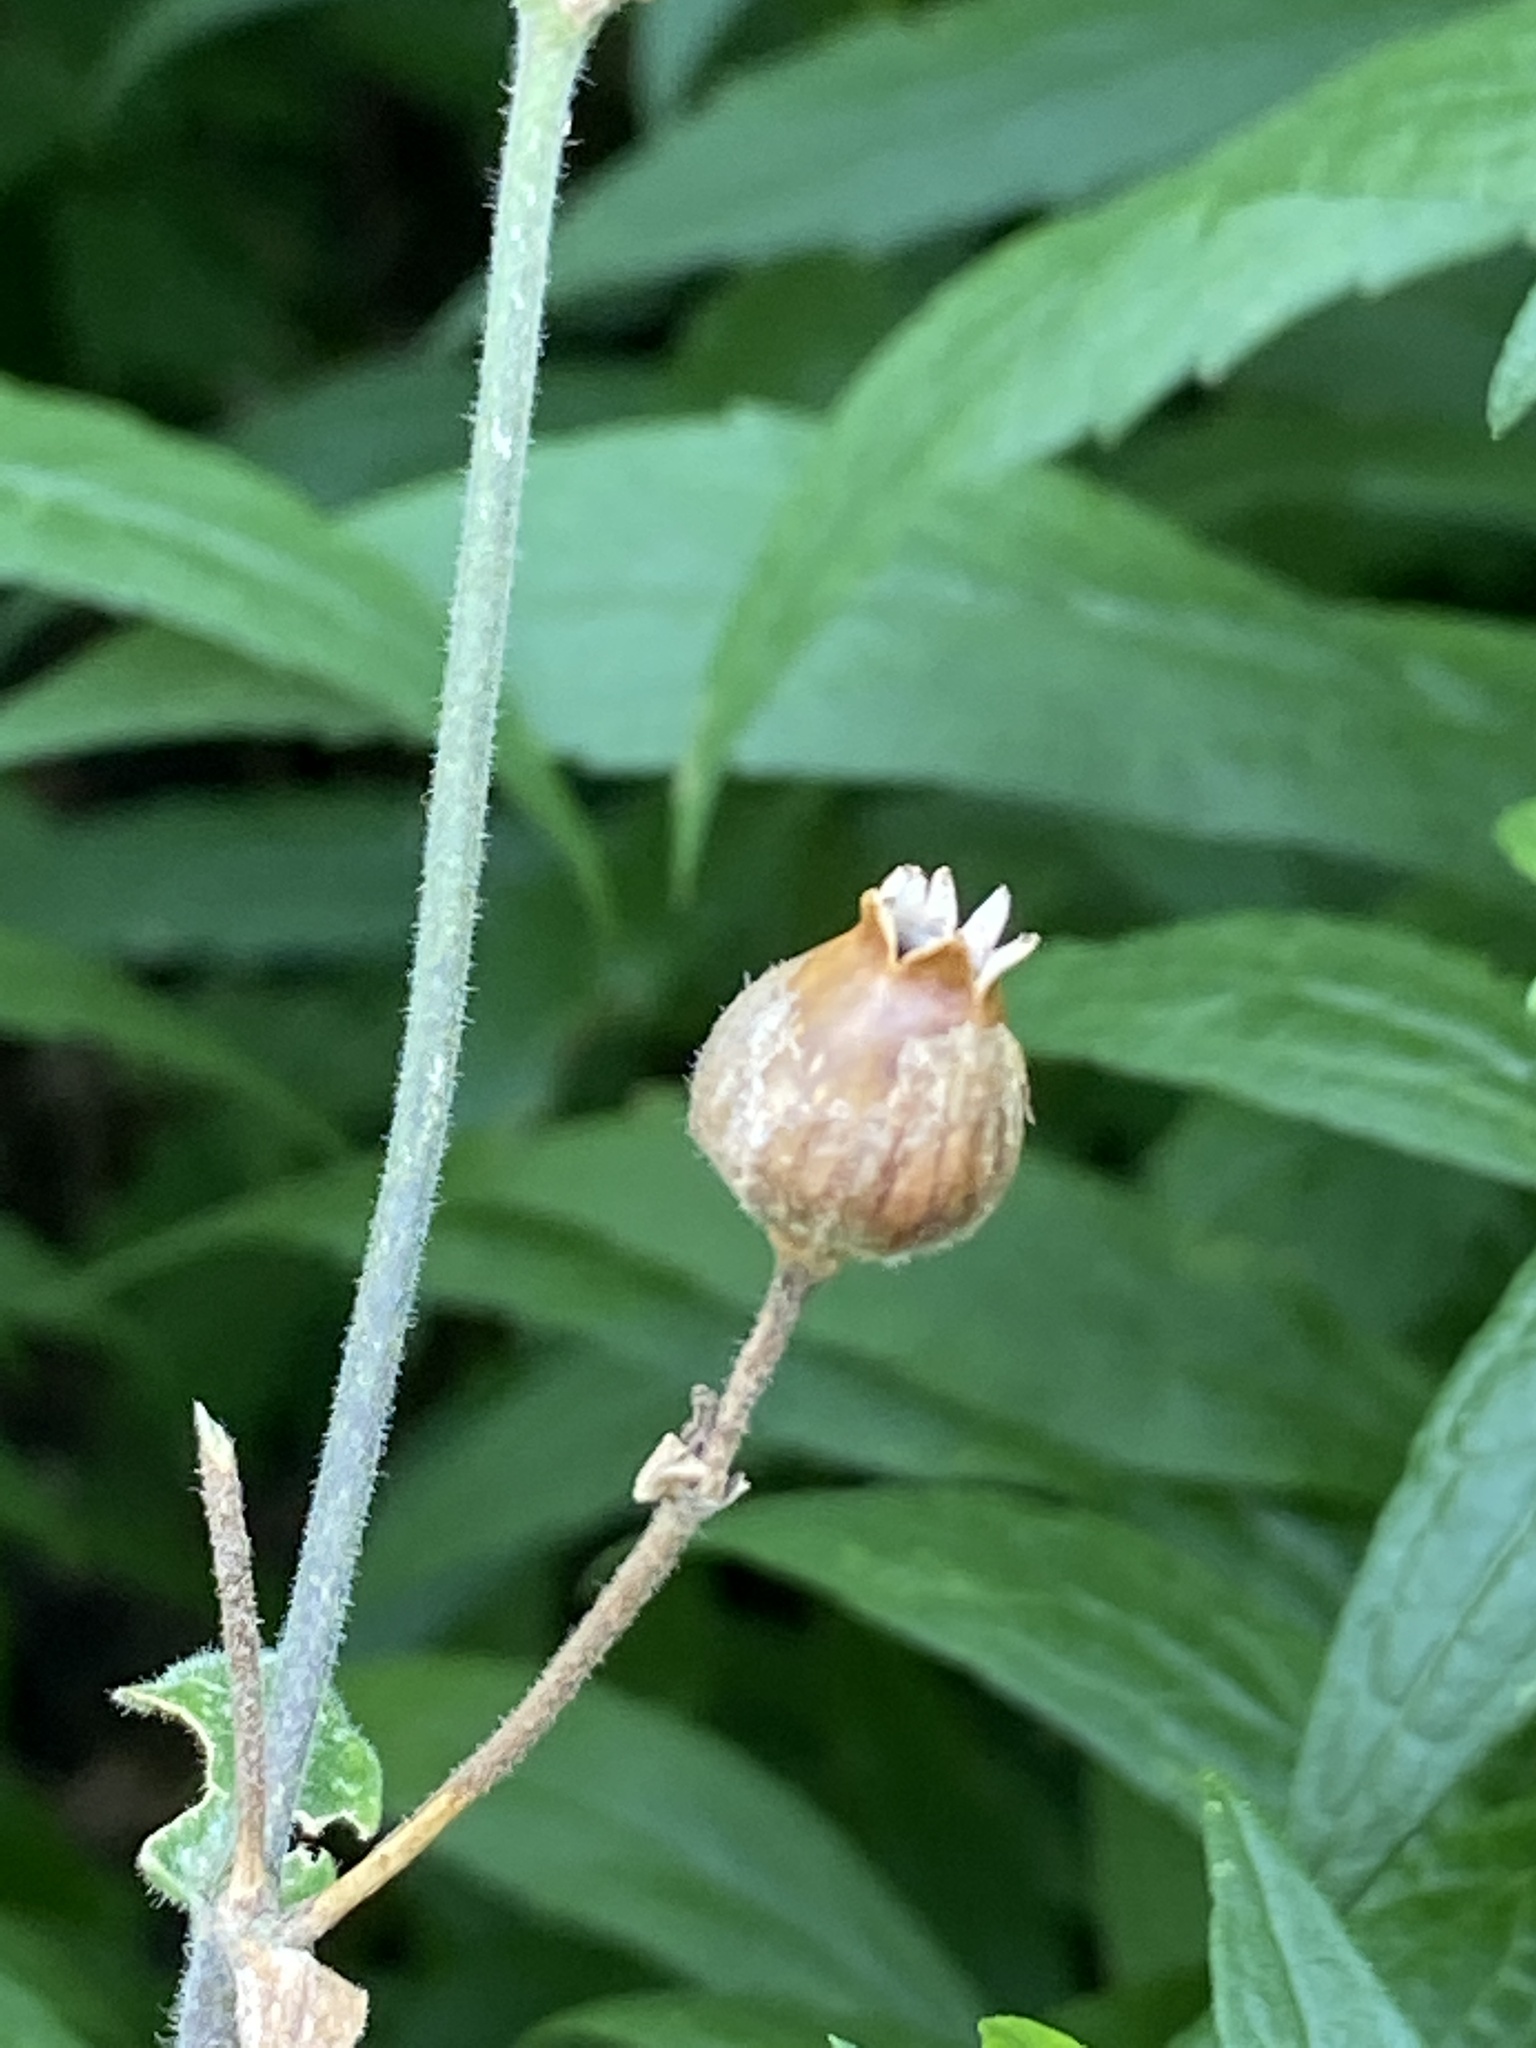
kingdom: Plantae
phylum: Tracheophyta
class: Magnoliopsida
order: Caryophyllales
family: Caryophyllaceae
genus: Silene
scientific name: Silene latifolia
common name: White campion
